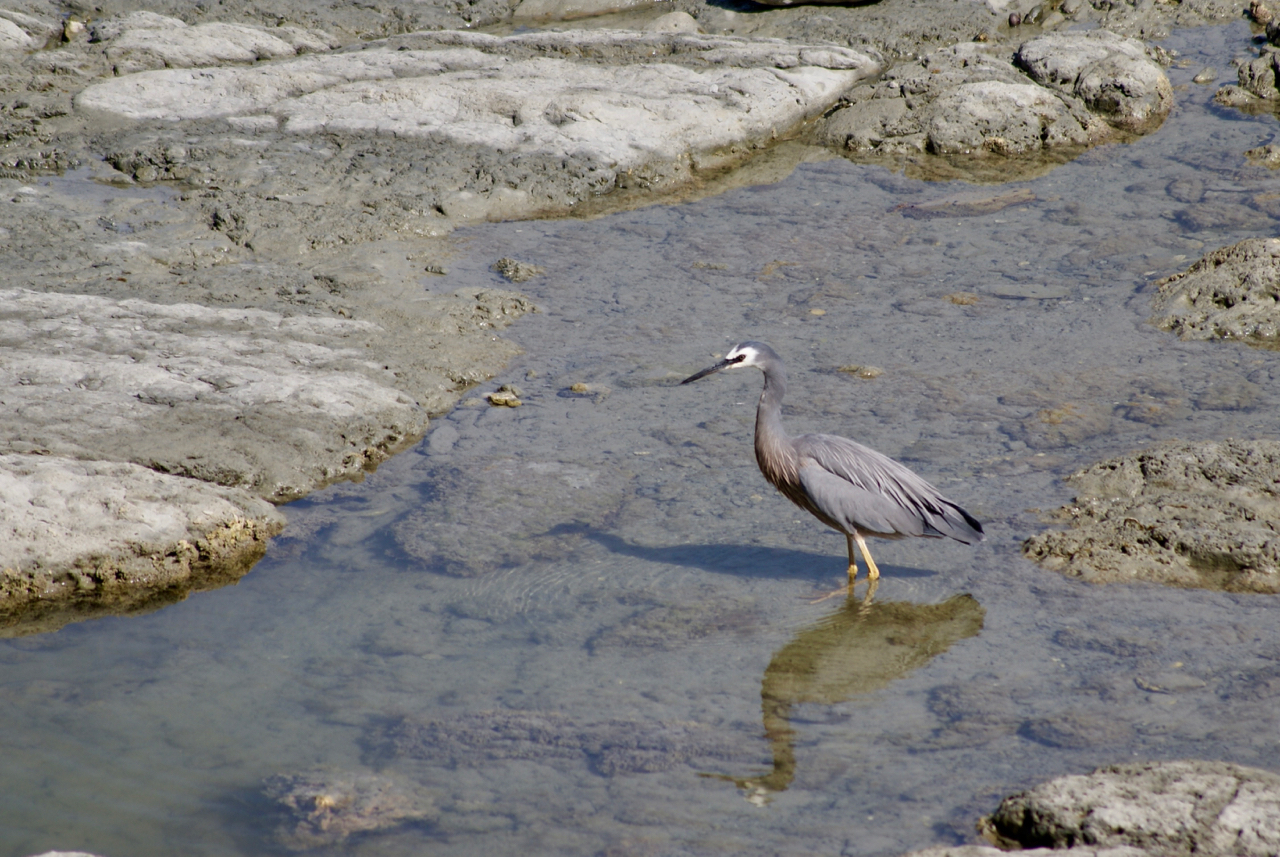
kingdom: Animalia
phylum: Chordata
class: Aves
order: Pelecaniformes
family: Ardeidae
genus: Egretta
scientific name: Egretta novaehollandiae
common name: White-faced heron
